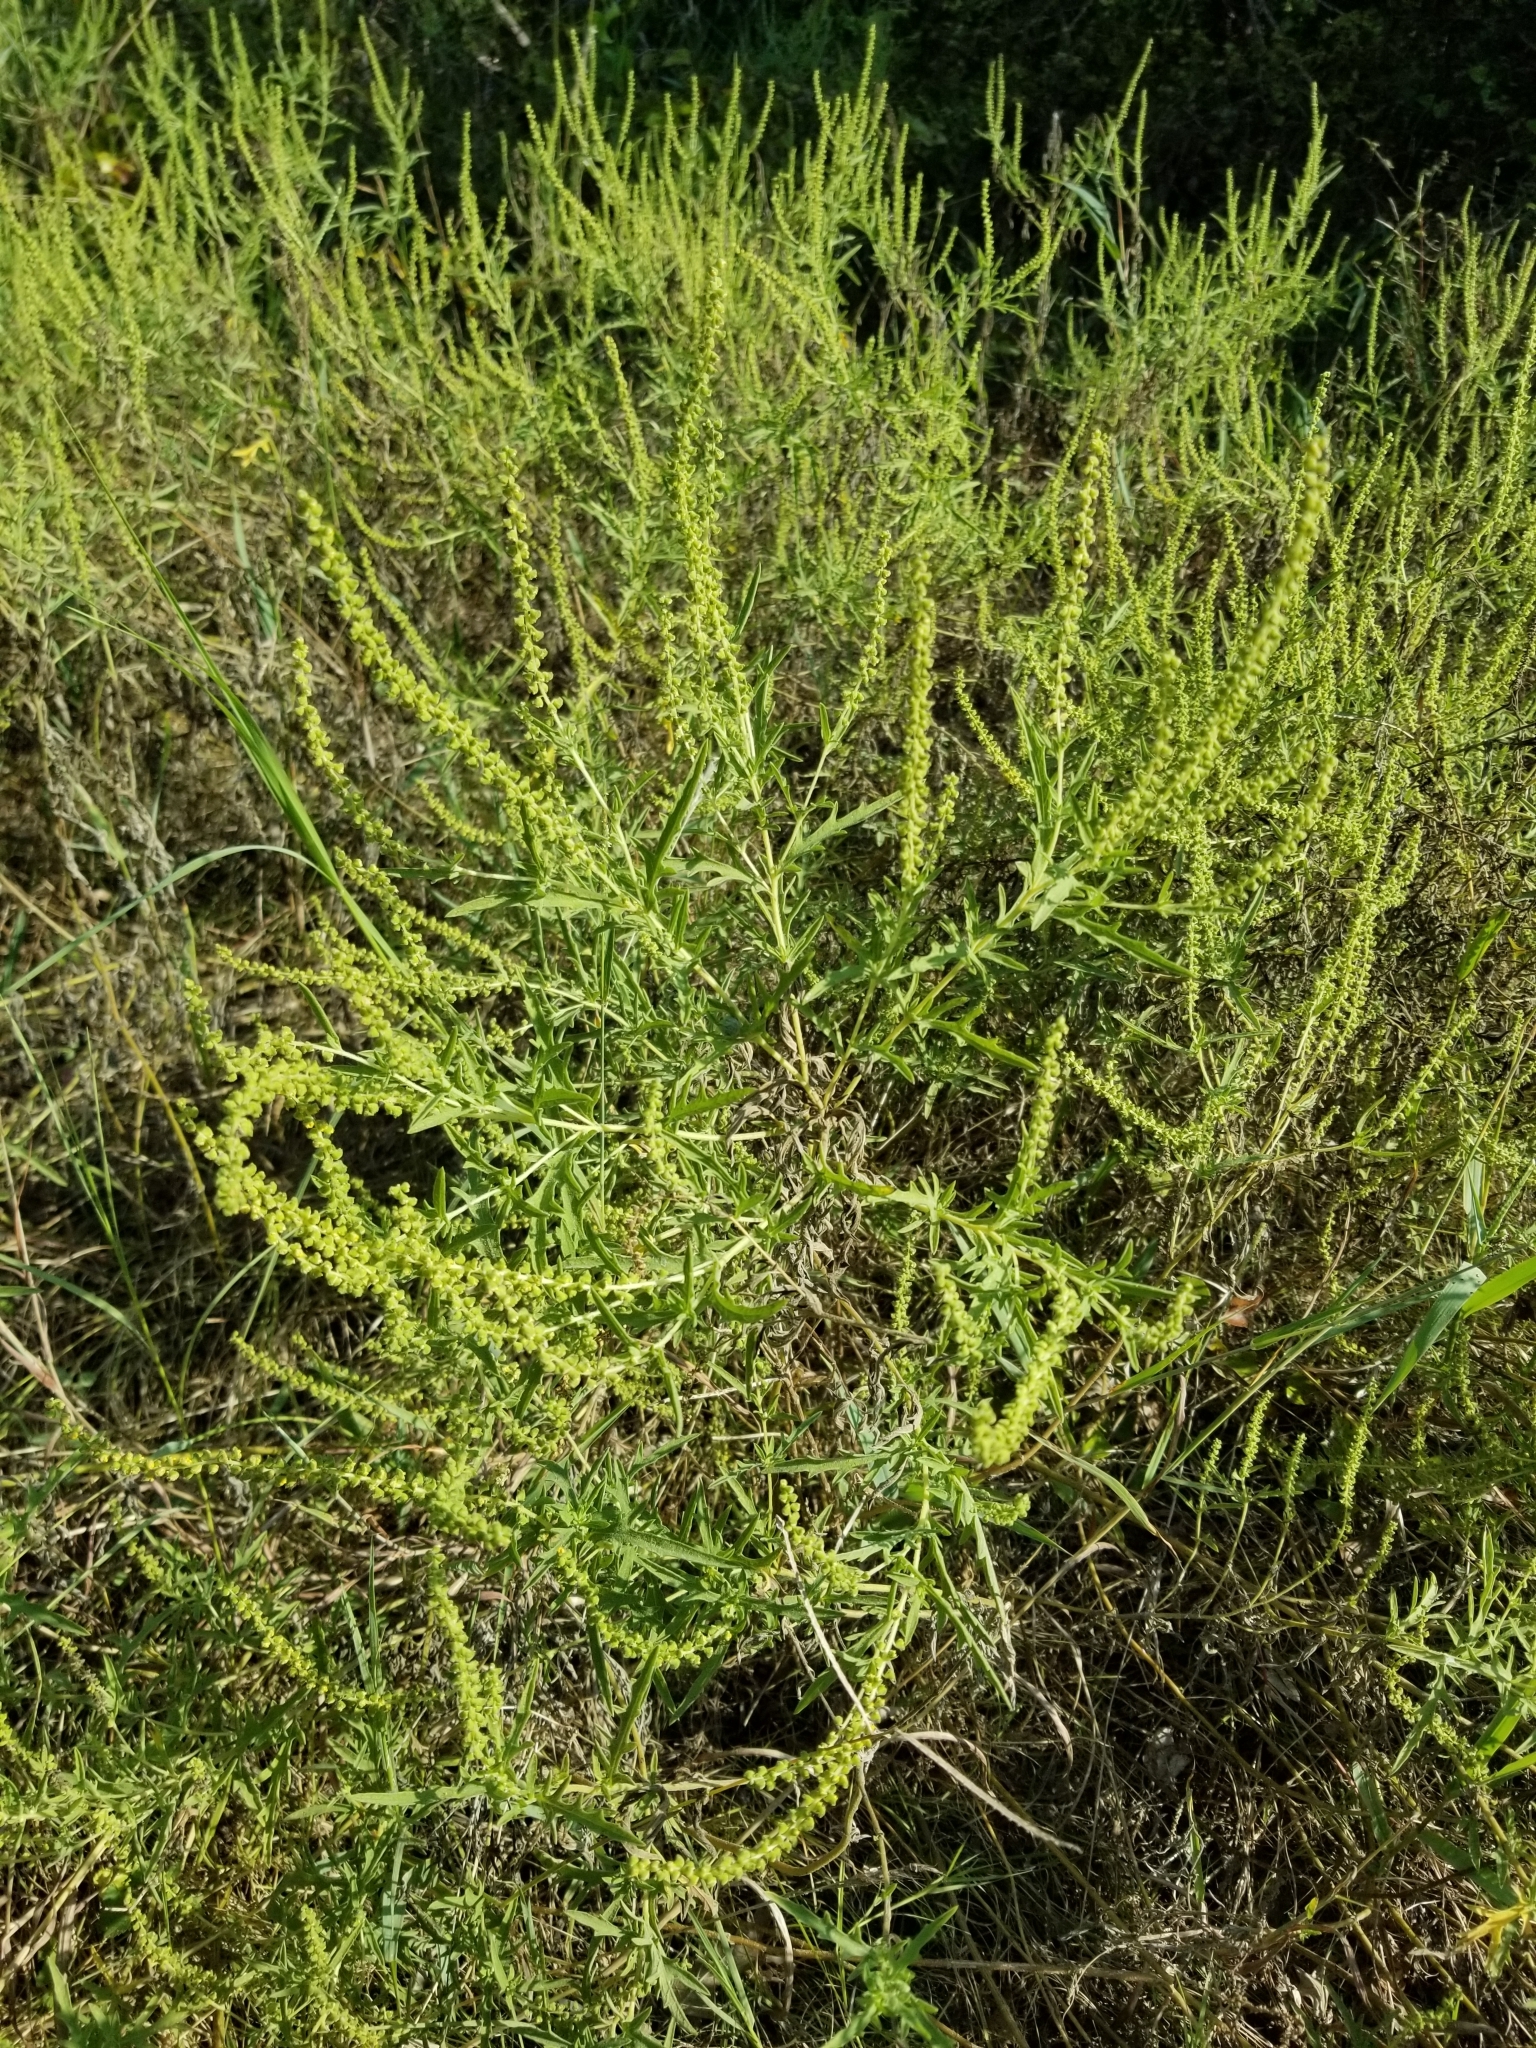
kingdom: Plantae
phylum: Tracheophyta
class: Magnoliopsida
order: Asterales
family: Asteraceae
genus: Ambrosia
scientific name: Ambrosia psilostachya
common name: Perennial ragweed
